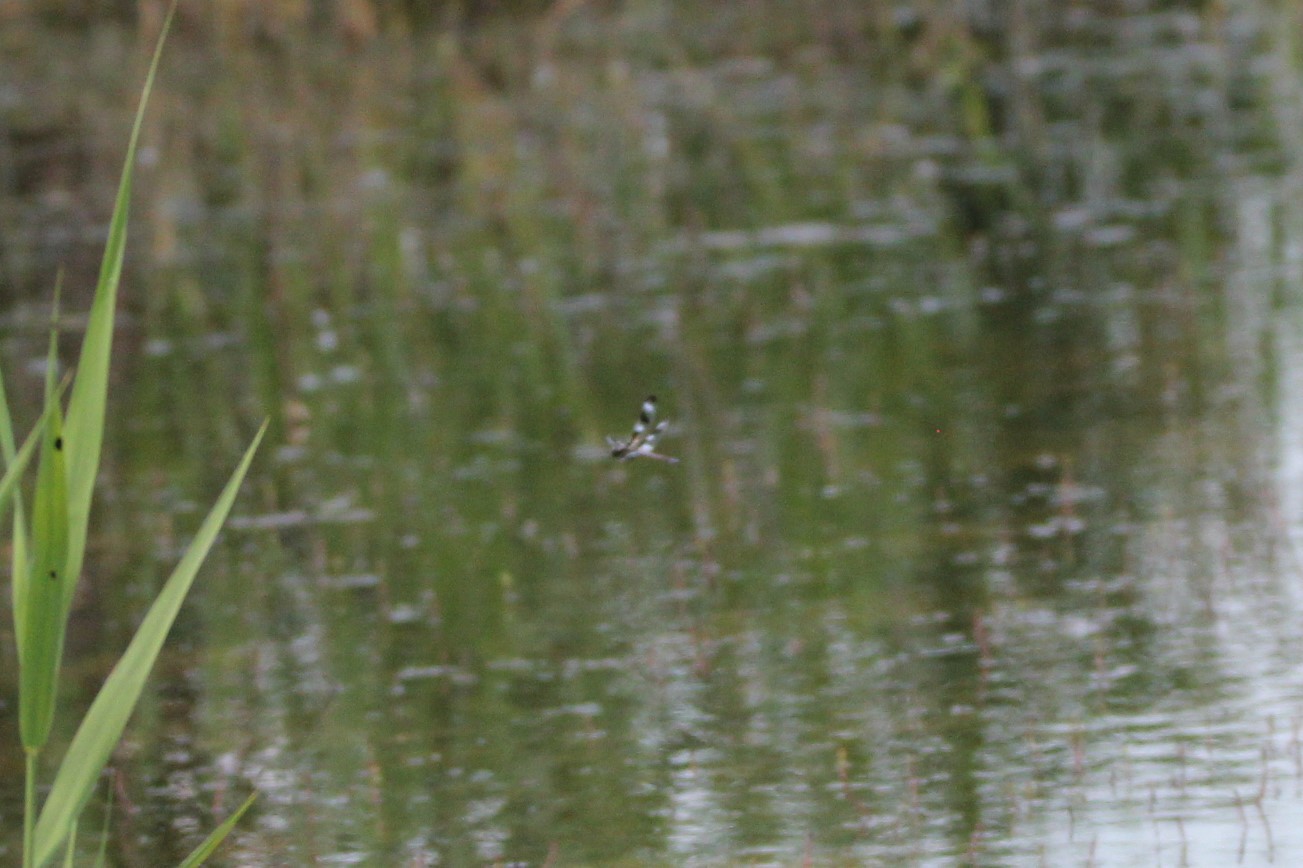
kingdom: Animalia
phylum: Arthropoda
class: Insecta
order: Odonata
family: Libellulidae
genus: Libellula
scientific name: Libellula pulchella
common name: Twelve-spotted skimmer
